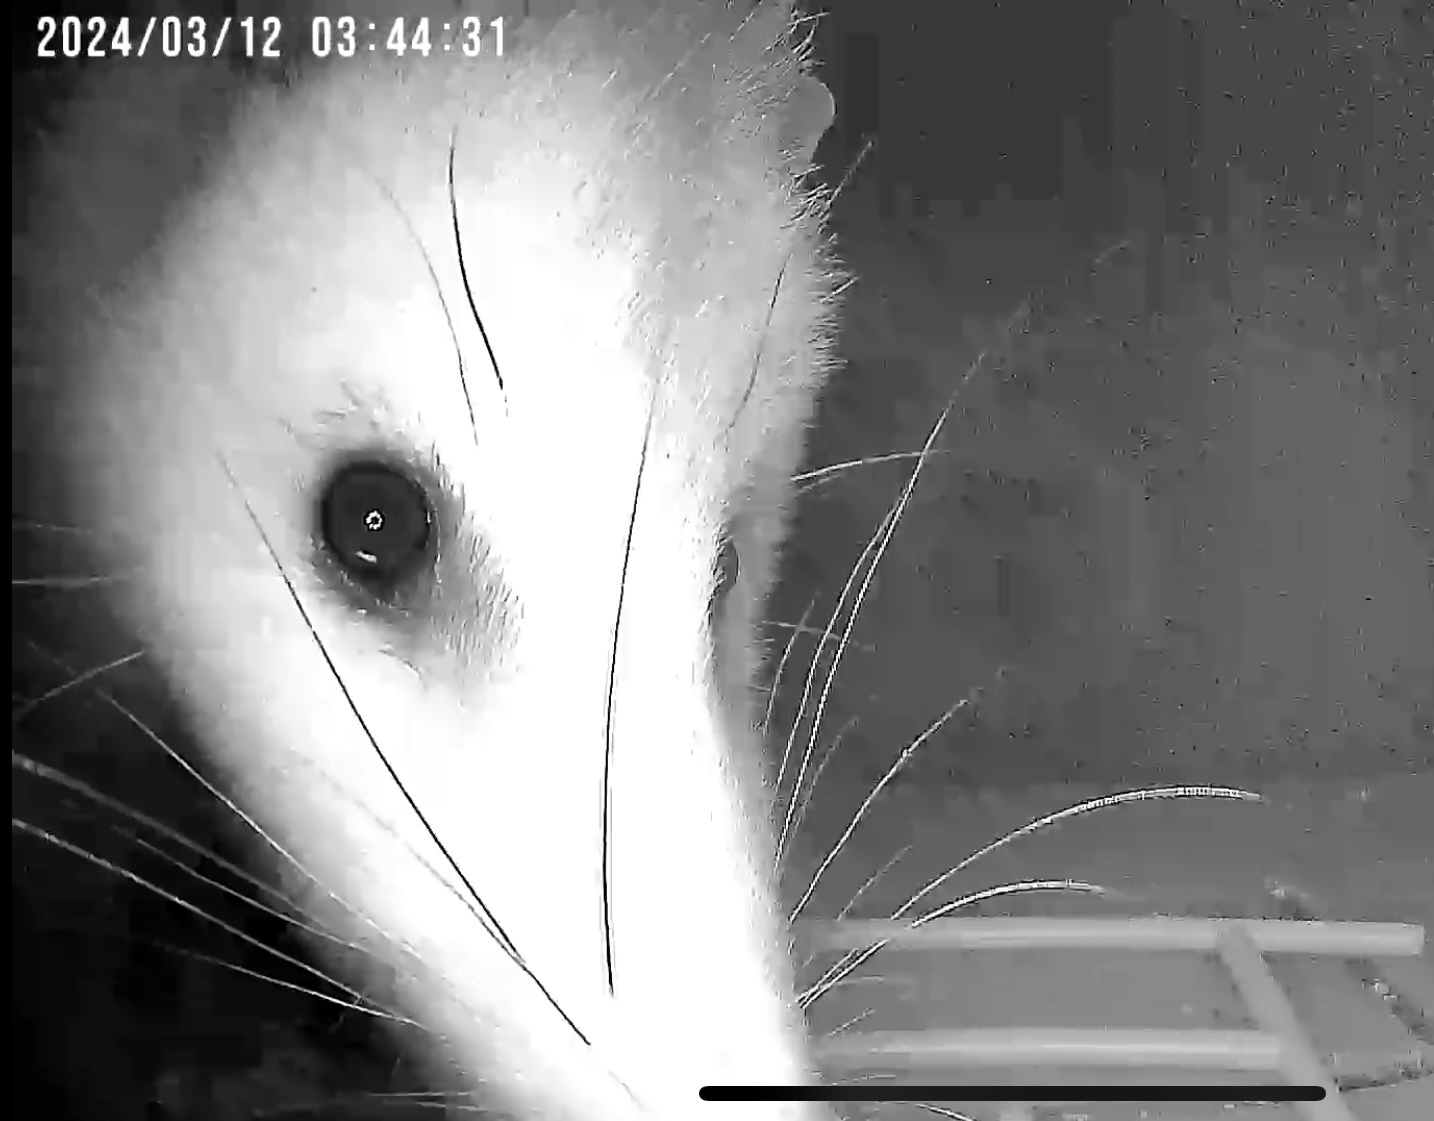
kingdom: Animalia
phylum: Chordata
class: Mammalia
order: Didelphimorphia
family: Didelphidae
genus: Didelphis
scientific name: Didelphis virginiana
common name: Virginia opossum
